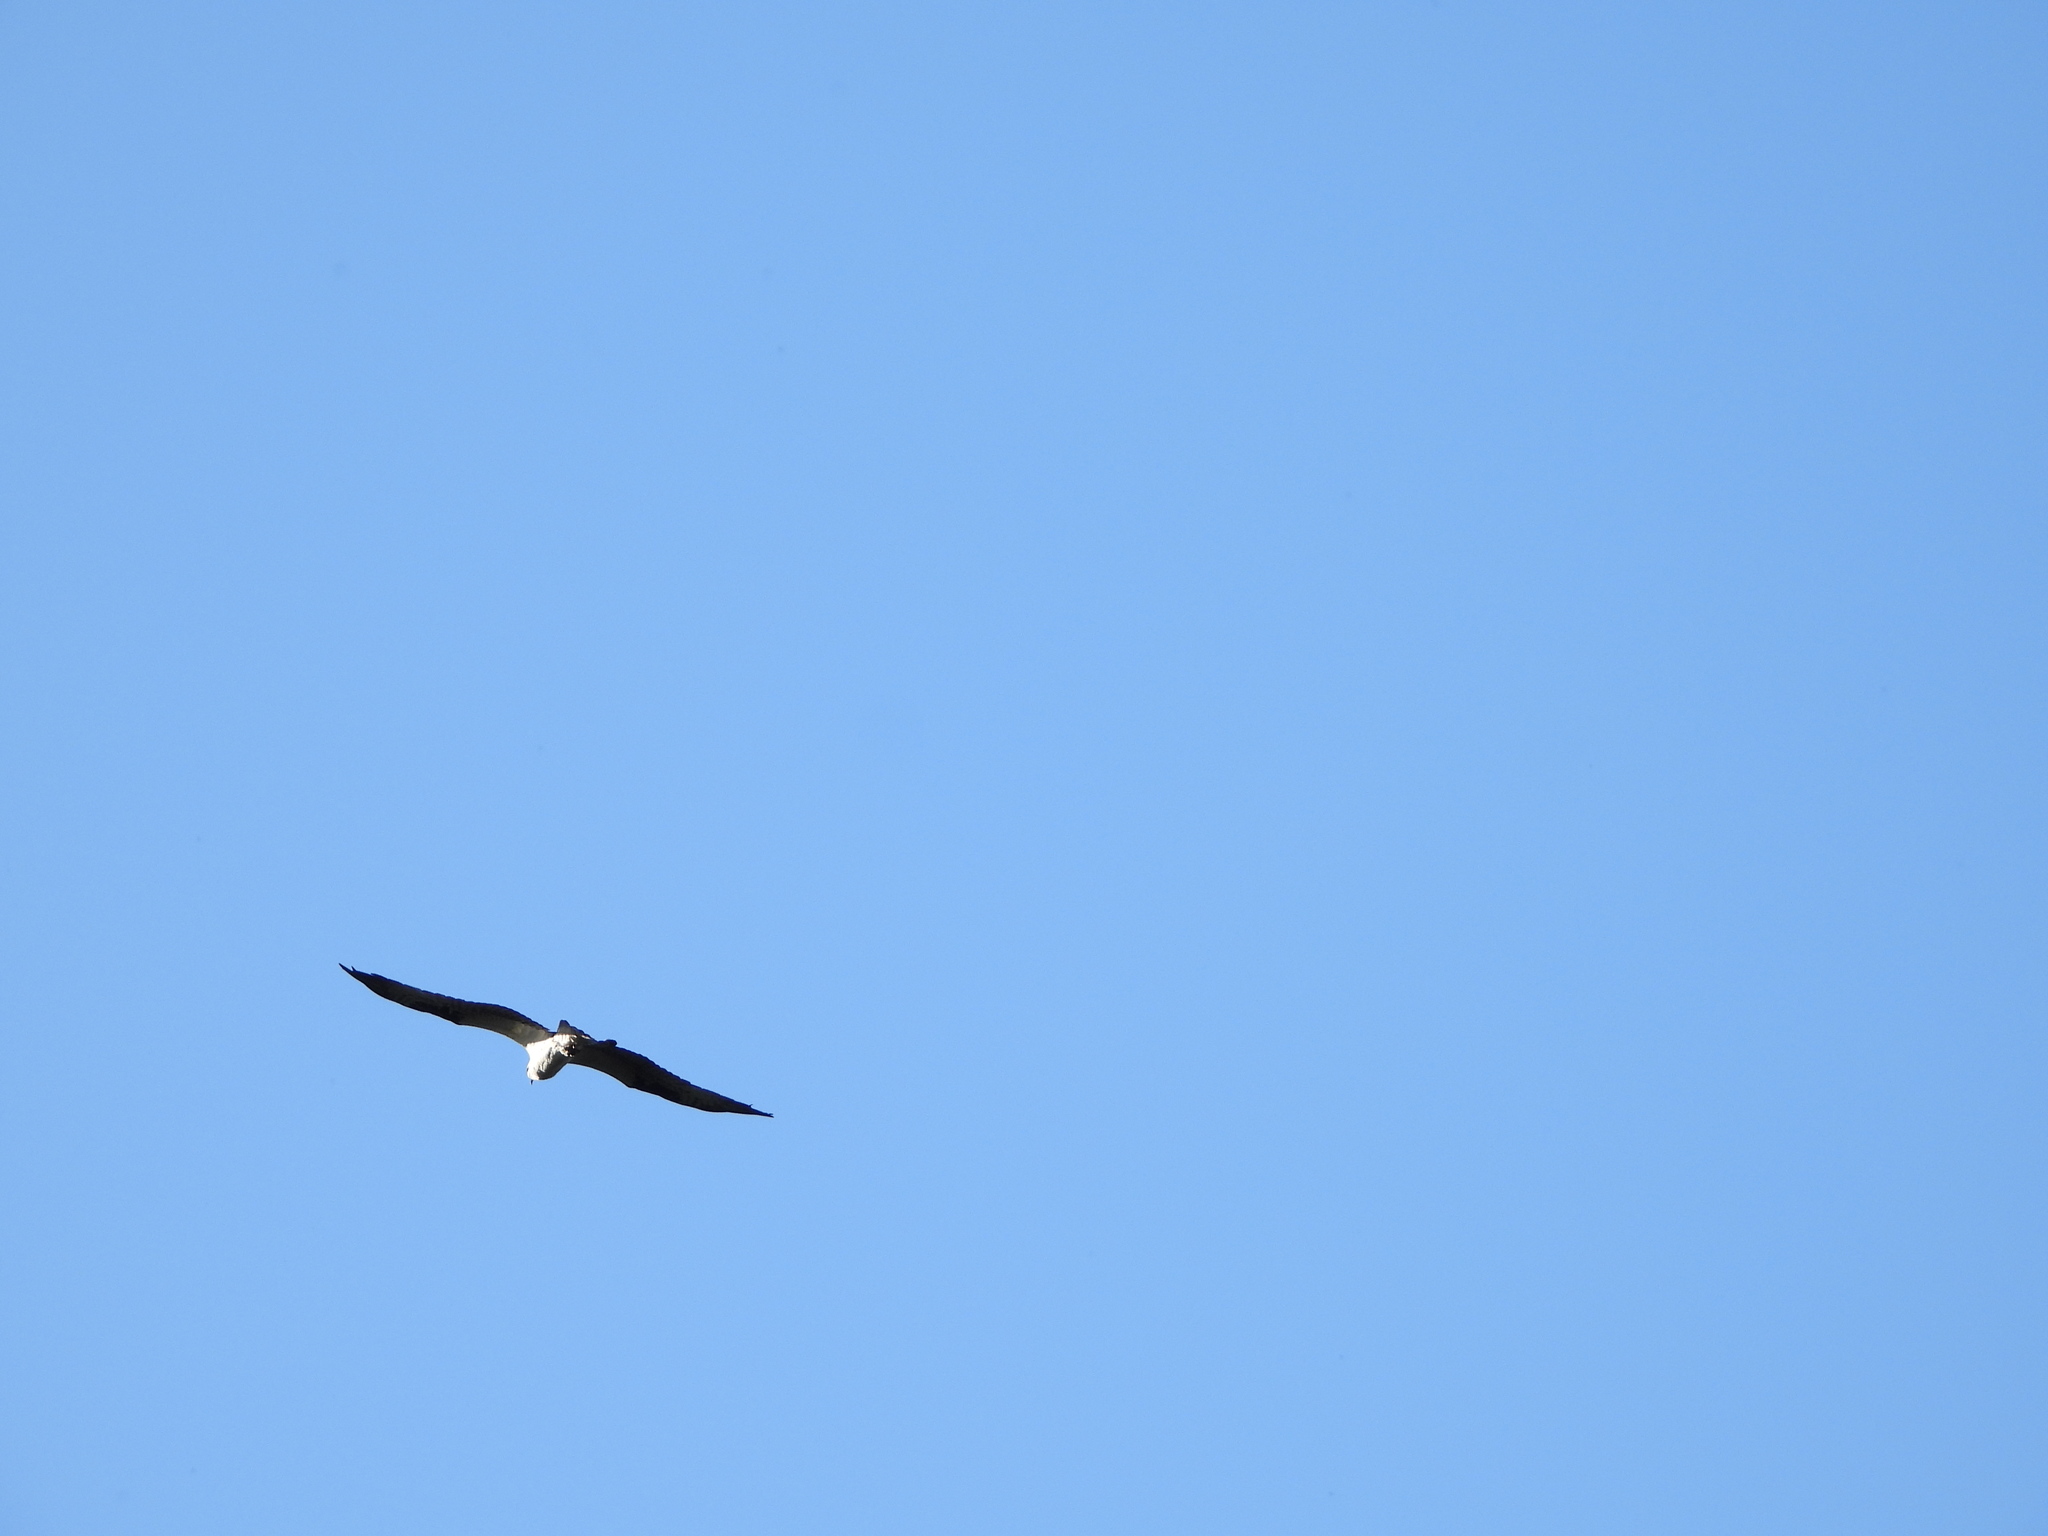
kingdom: Animalia
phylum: Chordata
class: Aves
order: Accipitriformes
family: Pandionidae
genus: Pandion
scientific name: Pandion haliaetus
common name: Osprey
